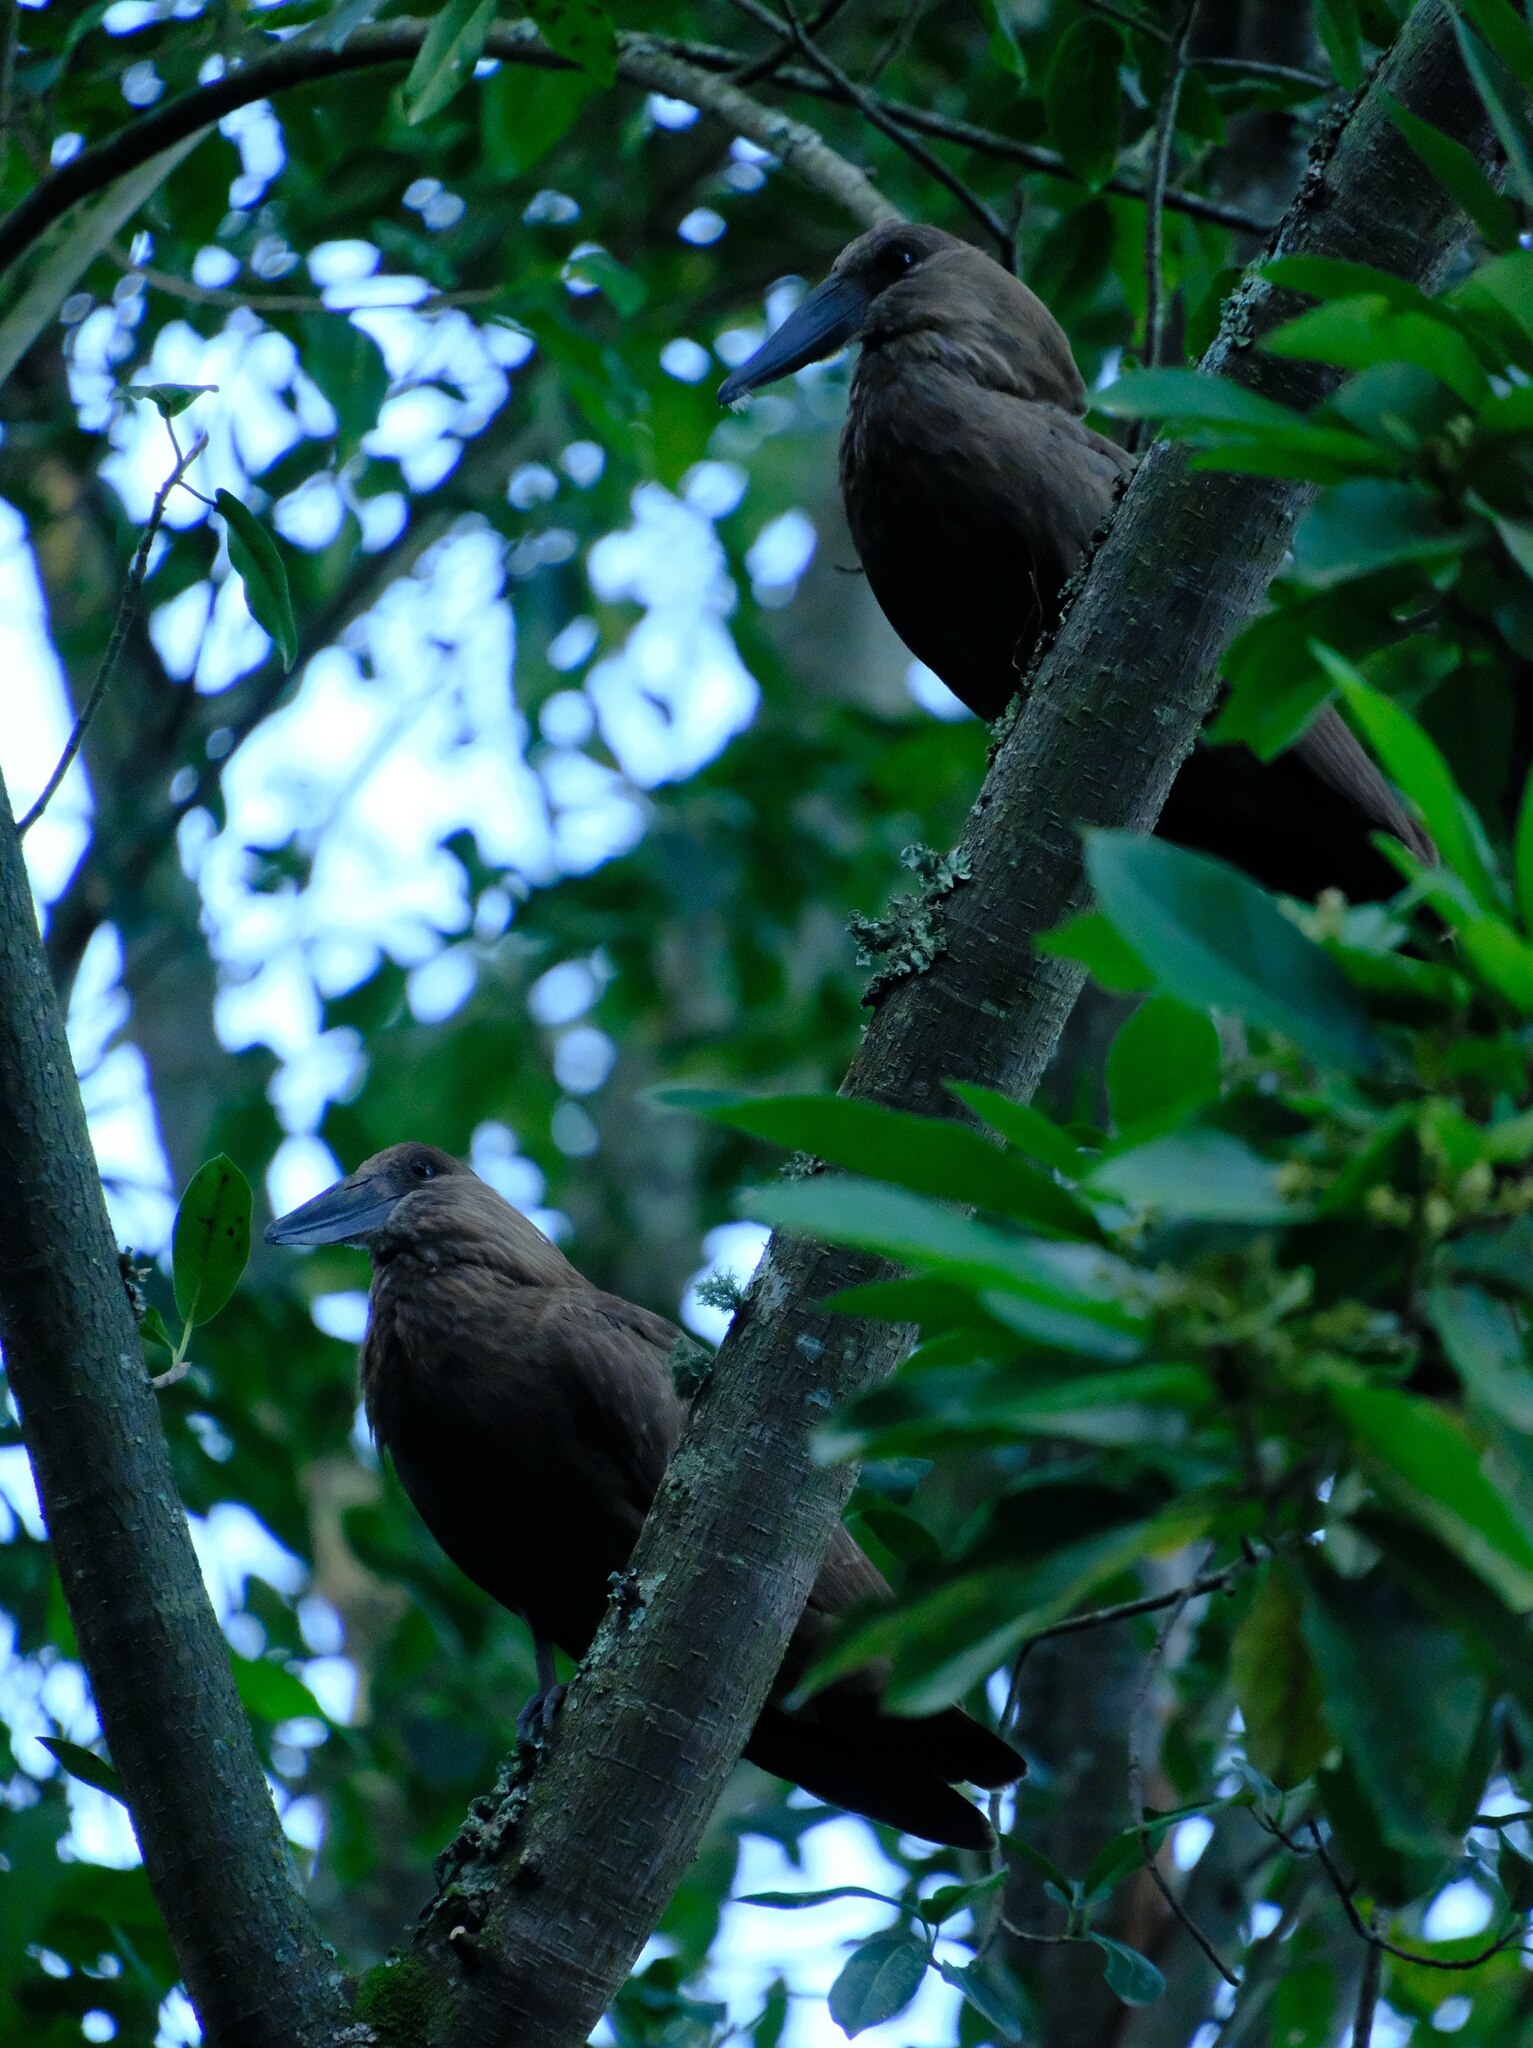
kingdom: Animalia
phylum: Chordata
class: Aves
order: Pelecaniformes
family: Scopidae
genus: Scopus
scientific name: Scopus umbretta
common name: Hamerkop
